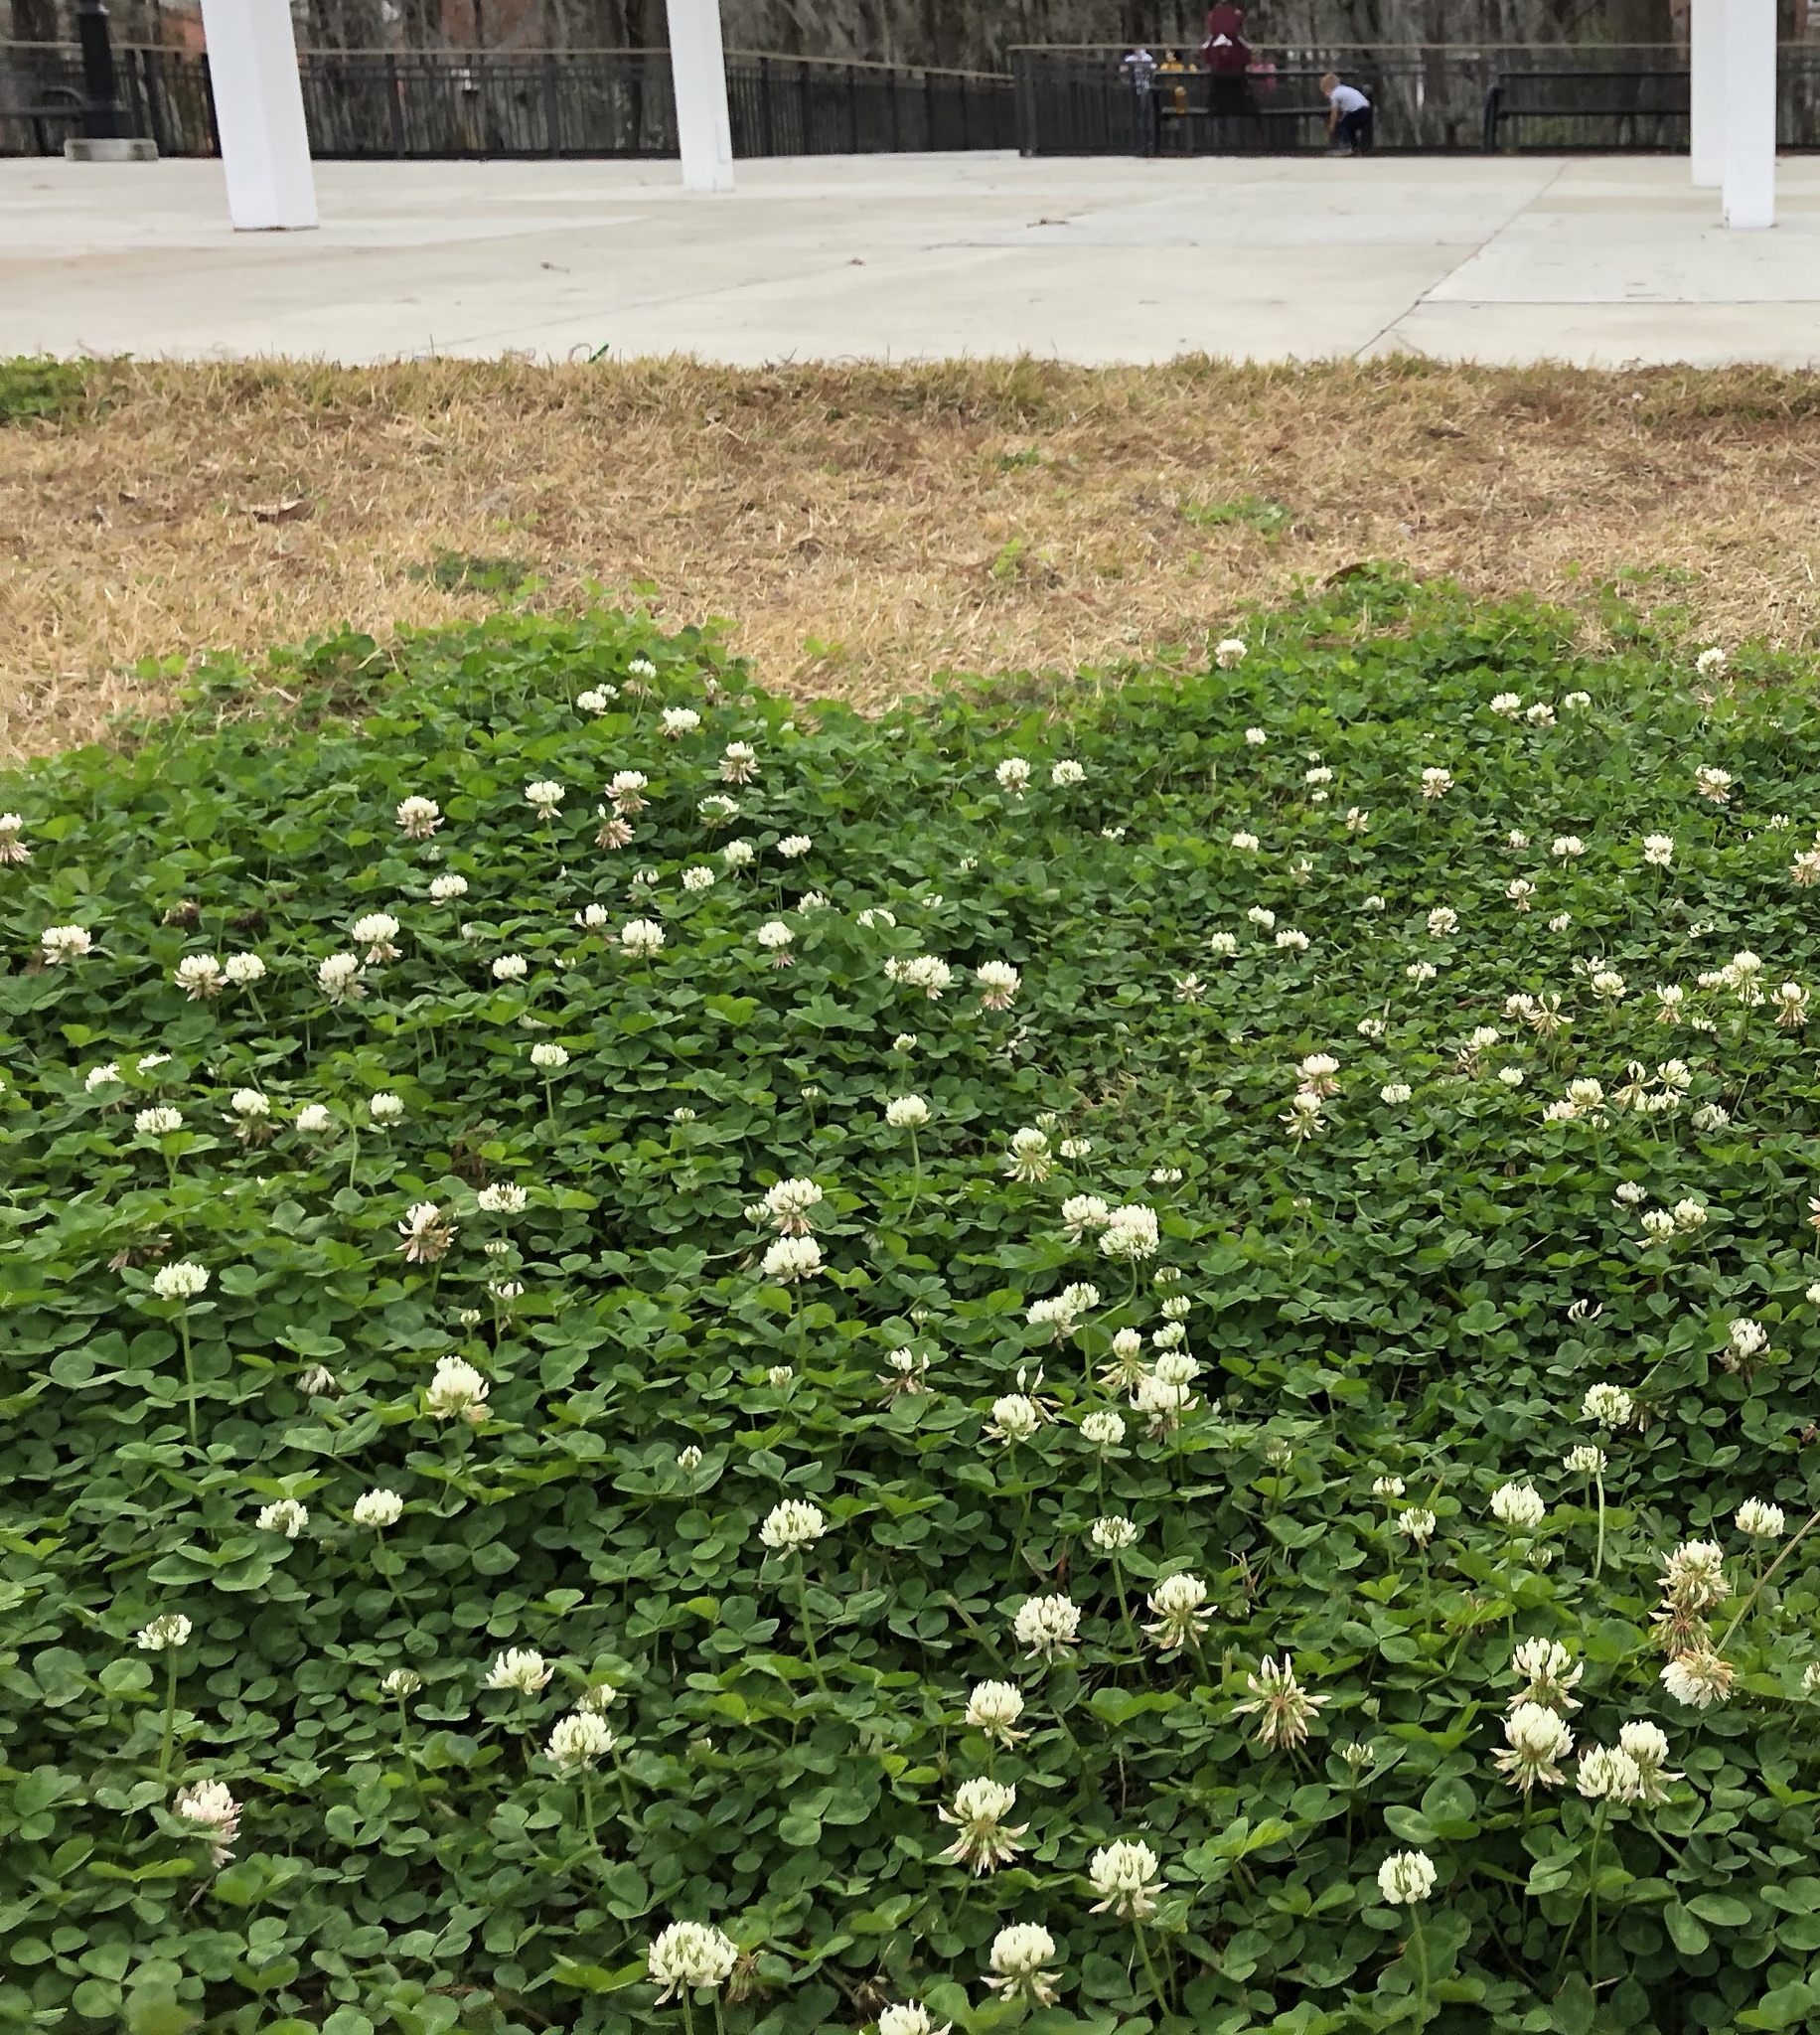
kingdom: Plantae
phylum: Tracheophyta
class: Magnoliopsida
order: Fabales
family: Fabaceae
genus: Trifolium
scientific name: Trifolium repens
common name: White clover
